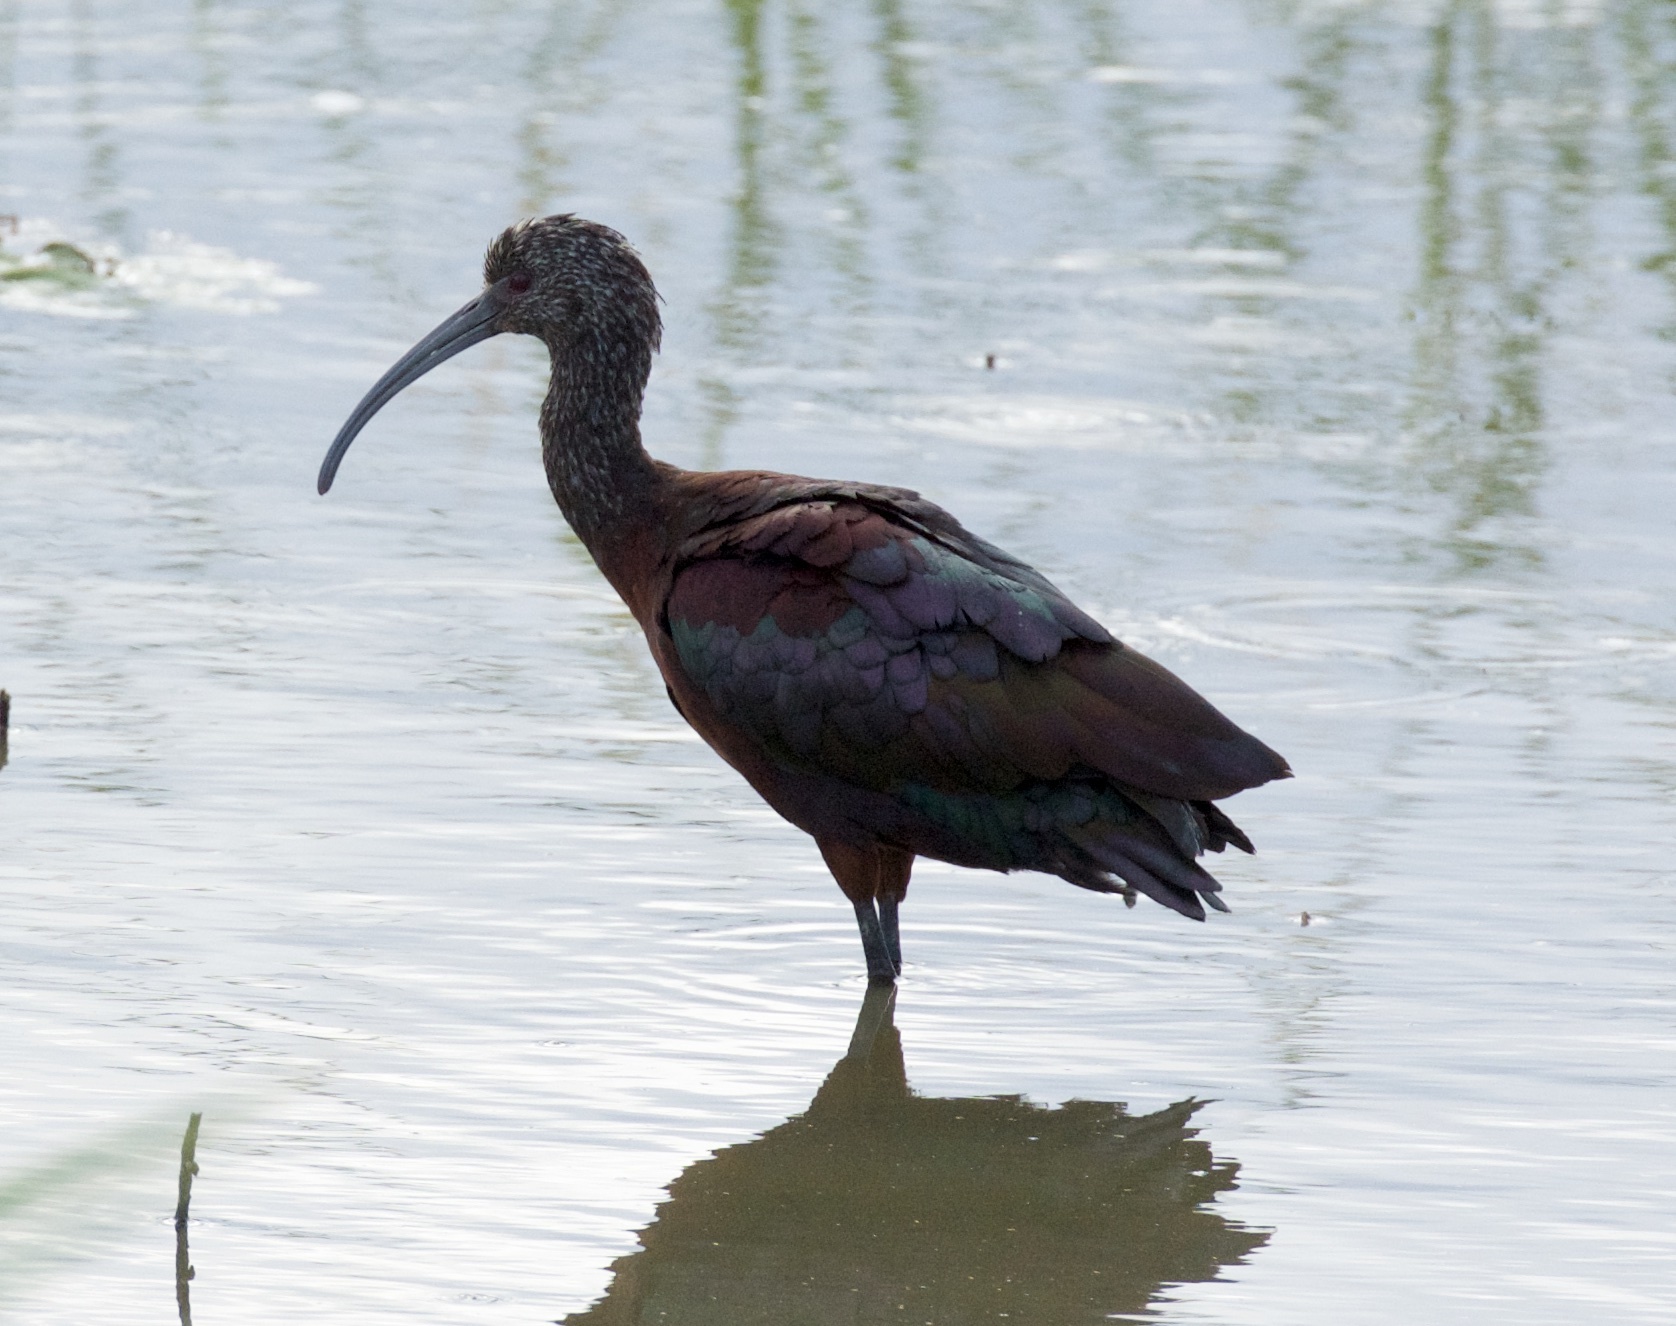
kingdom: Animalia
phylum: Chordata
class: Aves
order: Pelecaniformes
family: Threskiornithidae
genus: Plegadis
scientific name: Plegadis chihi
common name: White-faced ibis
